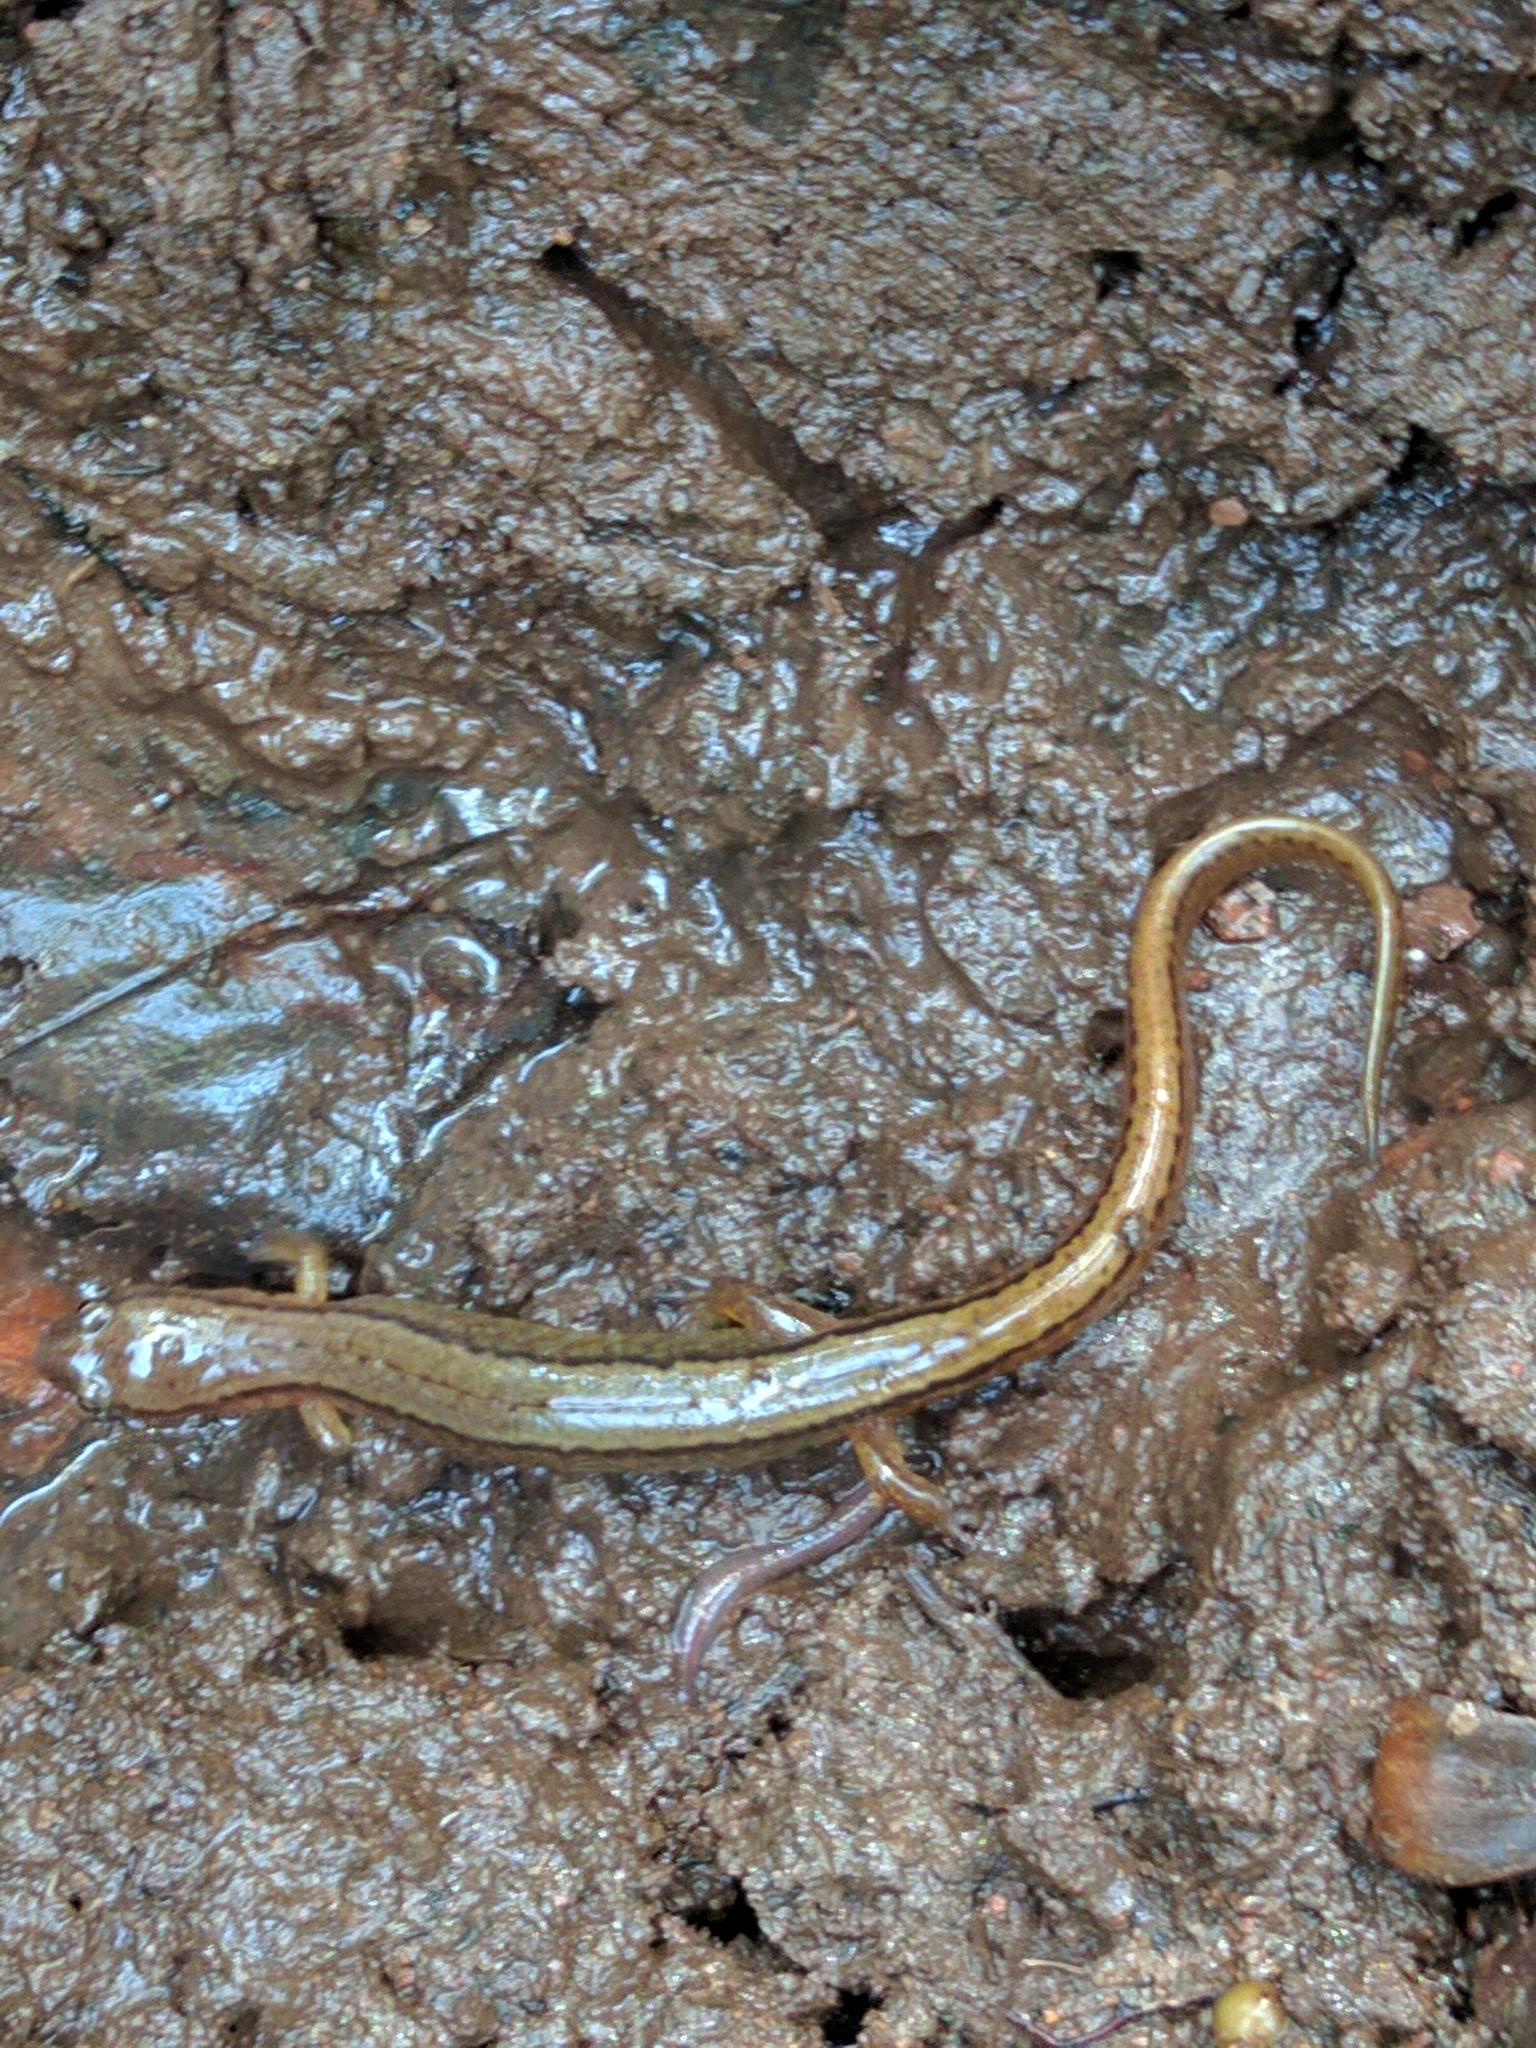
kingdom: Animalia
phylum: Chordata
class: Amphibia
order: Caudata
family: Plethodontidae
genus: Eurycea
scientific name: Eurycea bislineata
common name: Northern two-lined salamander
